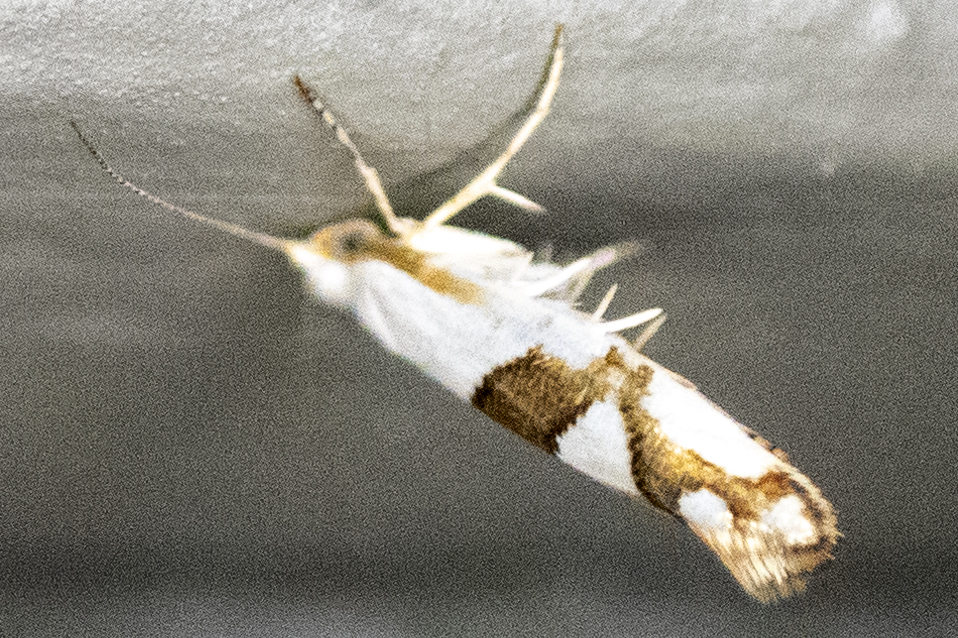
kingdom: Animalia
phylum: Arthropoda
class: Insecta
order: Lepidoptera
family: Argyresthiidae
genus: Argyresthia
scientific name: Argyresthia oreasella
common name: Cherry shoot borer moth
